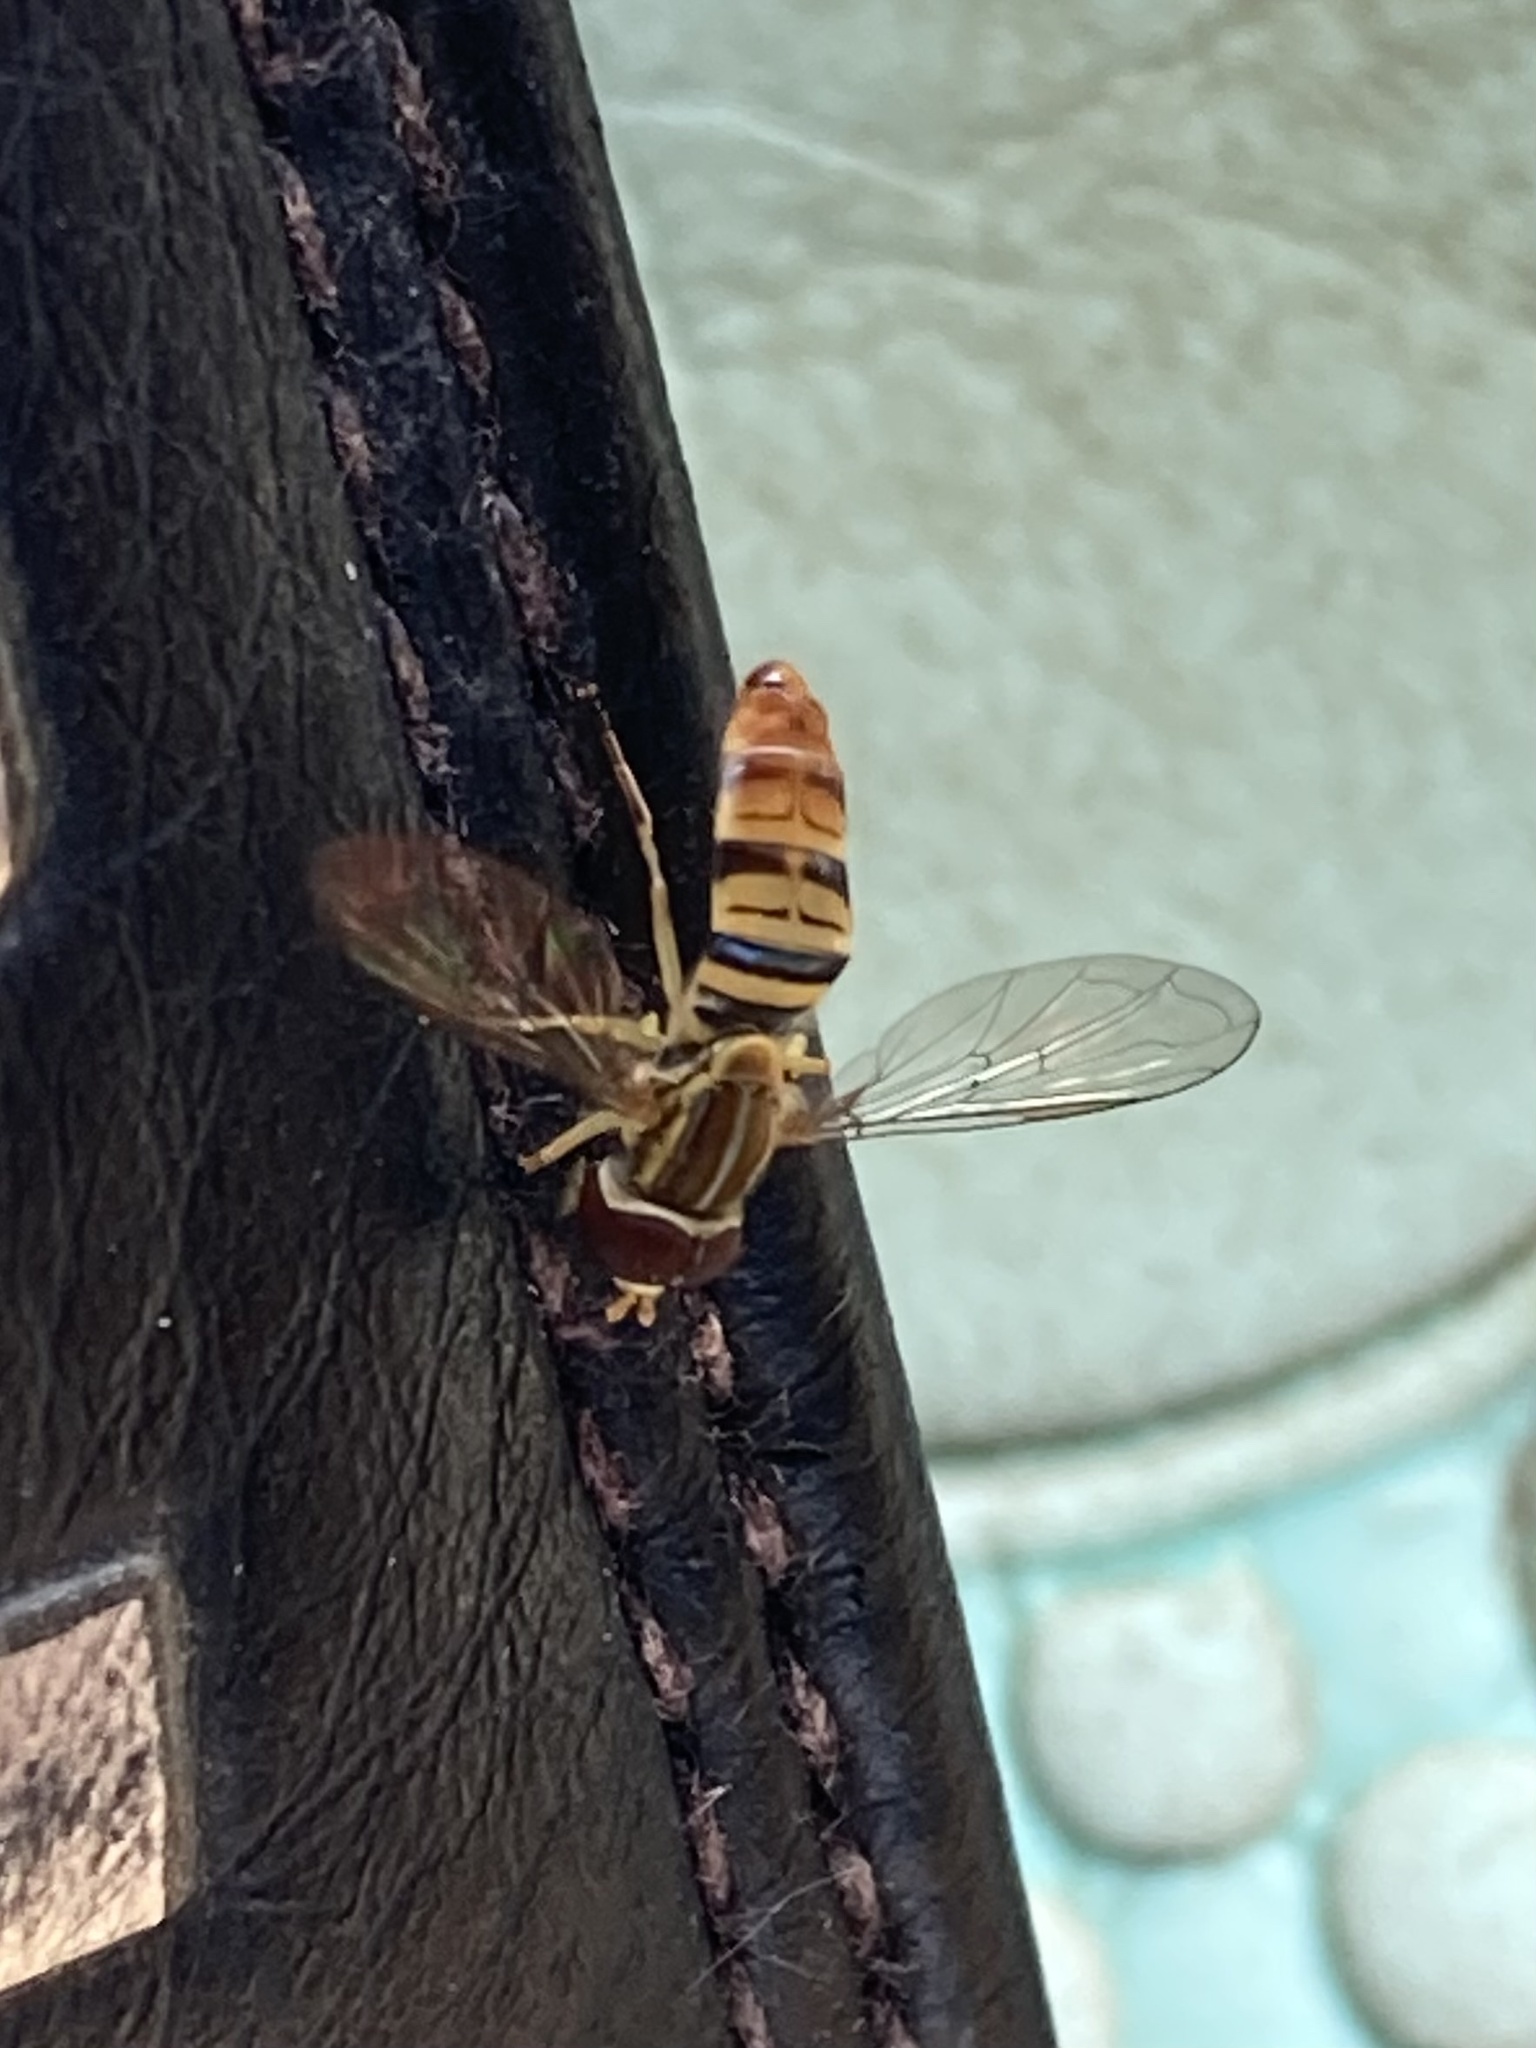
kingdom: Animalia
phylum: Arthropoda
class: Insecta
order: Diptera
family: Syrphidae
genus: Toxomerus
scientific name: Toxomerus politus
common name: Maize calligrapher
